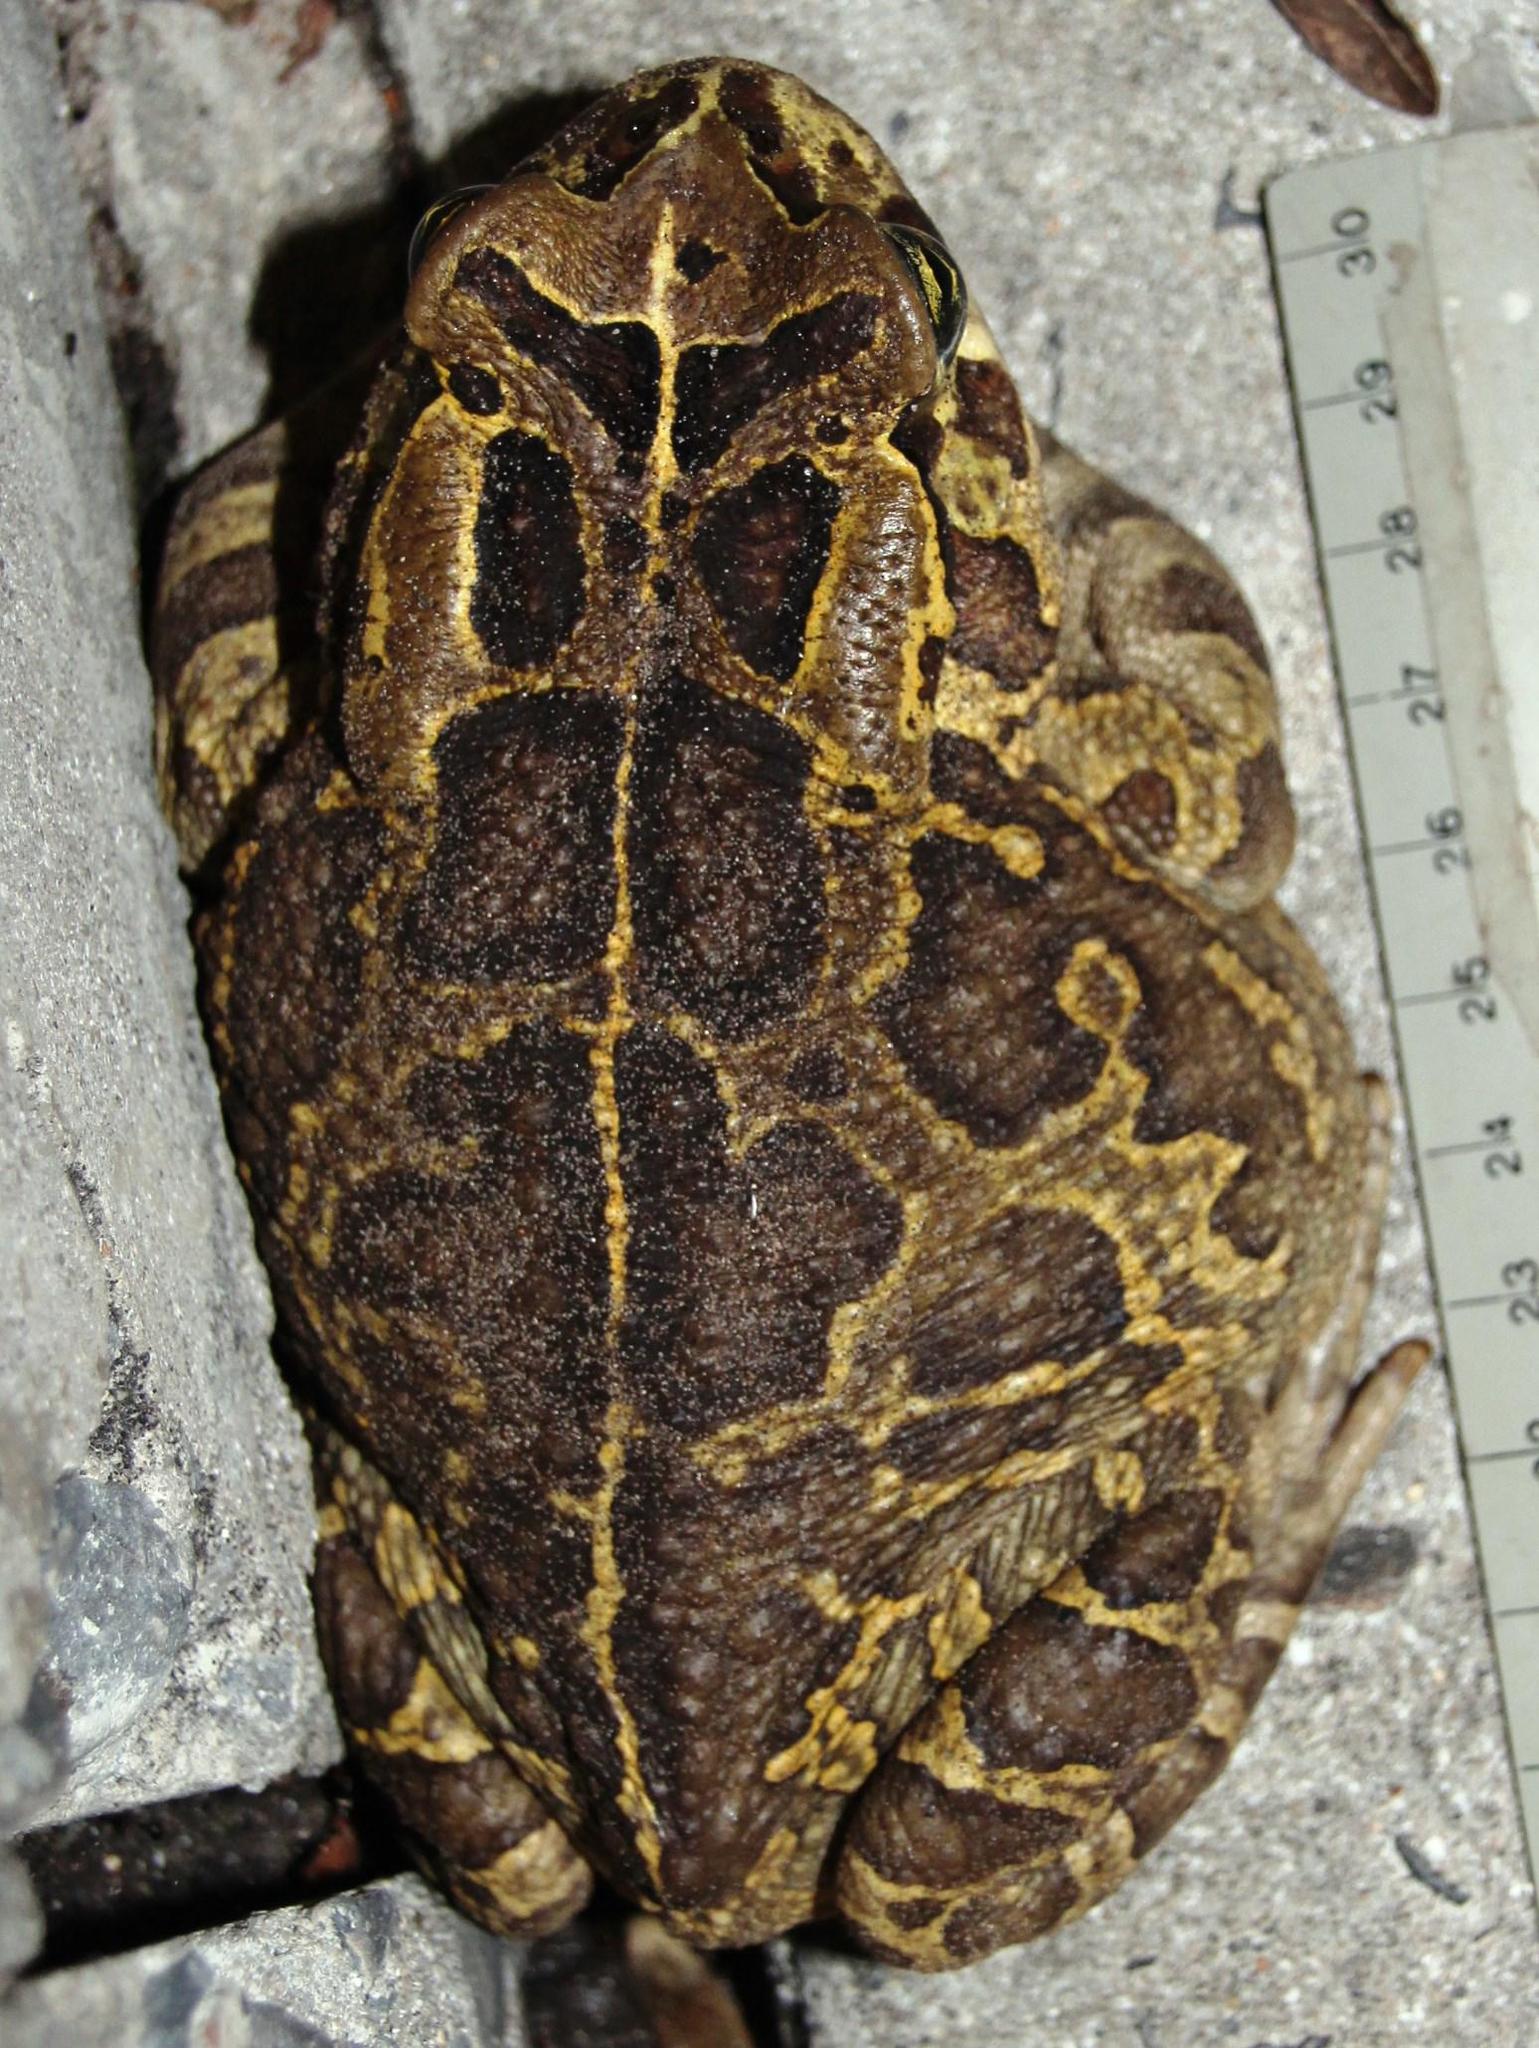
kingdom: Animalia
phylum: Chordata
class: Amphibia
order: Anura
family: Bufonidae
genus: Sclerophrys
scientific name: Sclerophrys pantherina
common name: Panther toad
